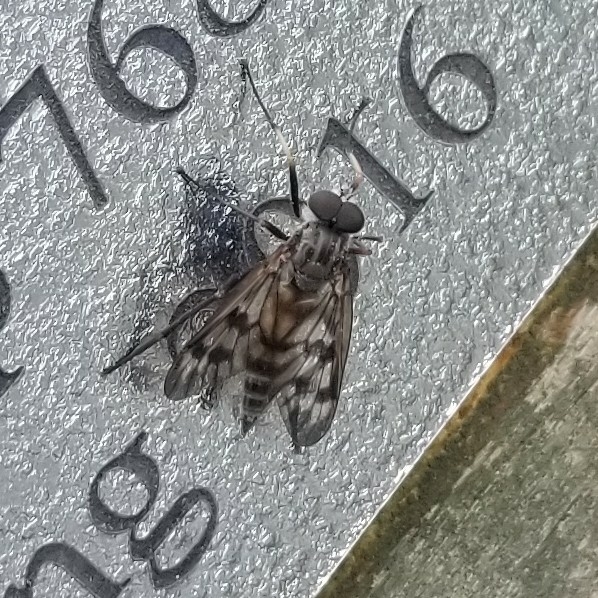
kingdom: Animalia
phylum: Arthropoda
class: Insecta
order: Diptera
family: Rhagionidae
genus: Rhagio
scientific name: Rhagio mystaceus
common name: Common snipe fly
